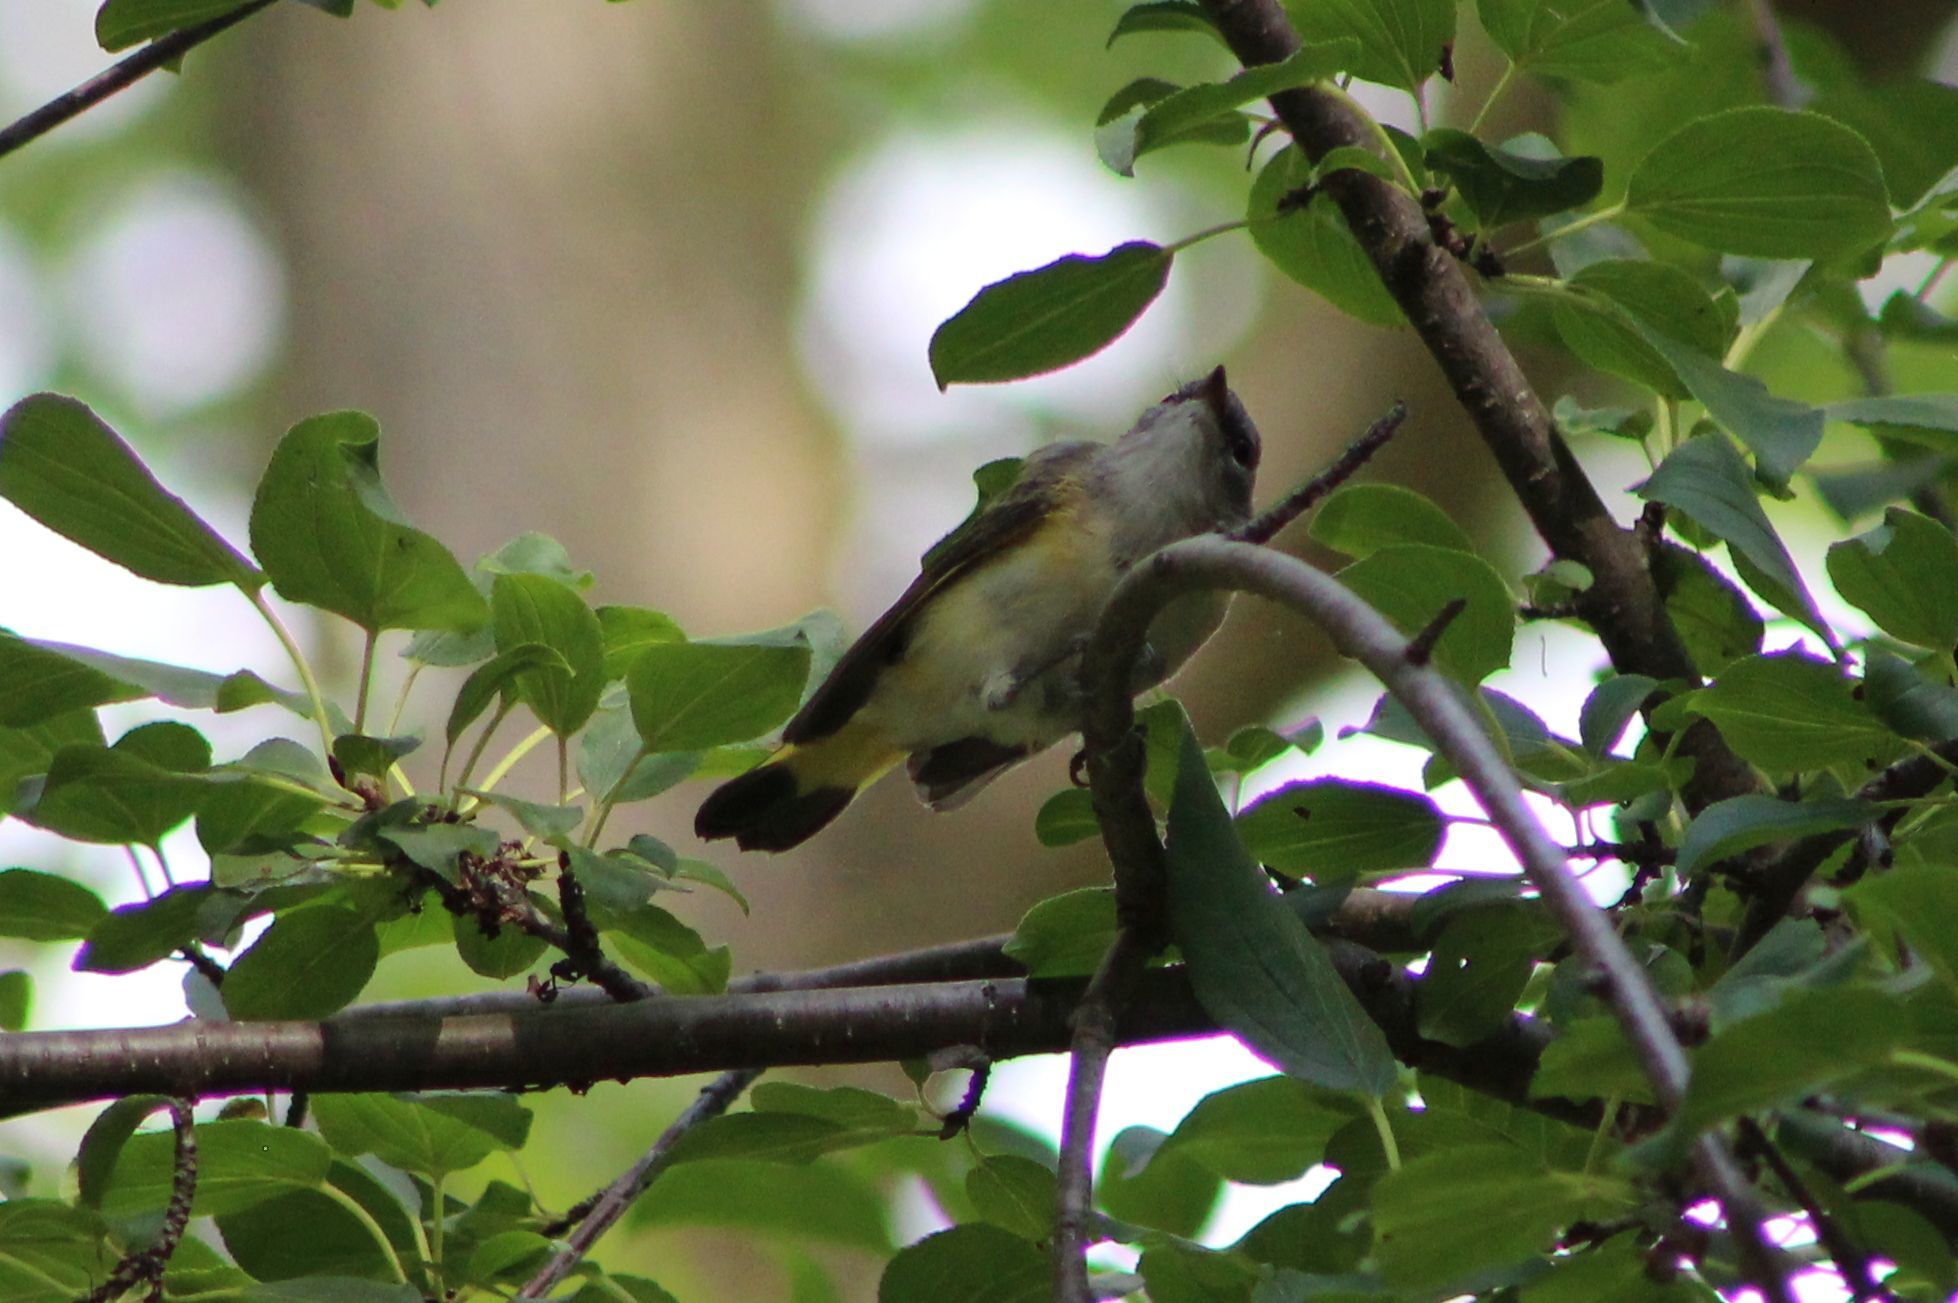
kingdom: Animalia
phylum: Chordata
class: Aves
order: Passeriformes
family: Parulidae
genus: Setophaga
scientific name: Setophaga ruticilla
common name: American redstart
